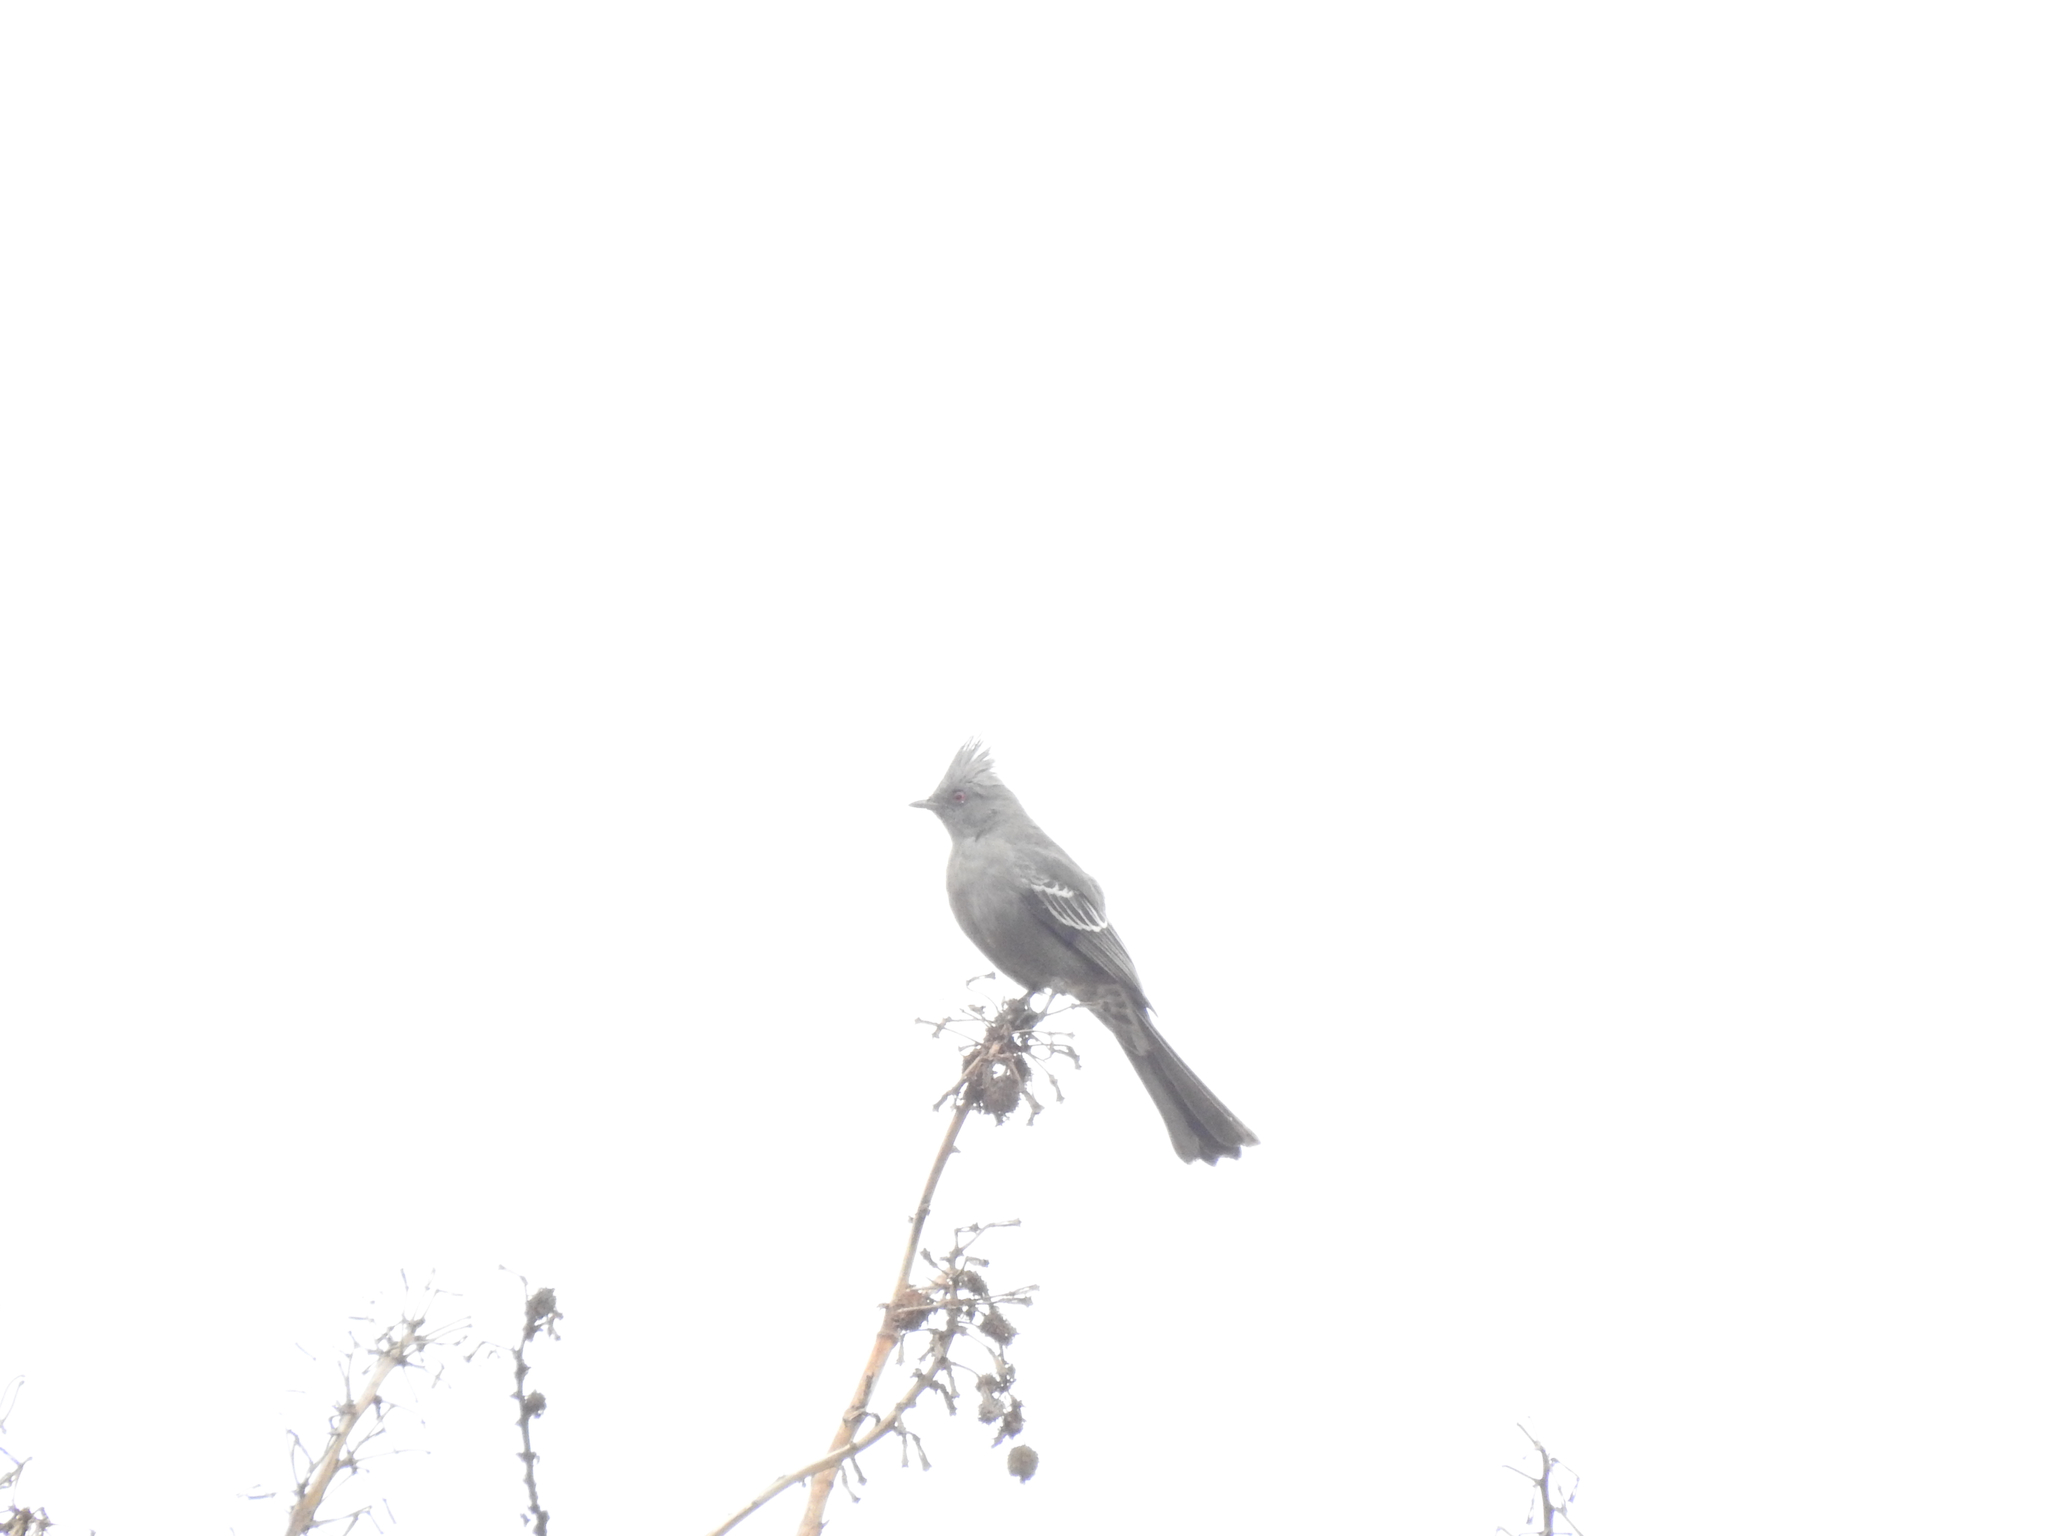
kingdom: Animalia
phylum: Chordata
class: Aves
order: Passeriformes
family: Ptilogonatidae
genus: Phainopepla
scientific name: Phainopepla nitens
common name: Phainopepla
